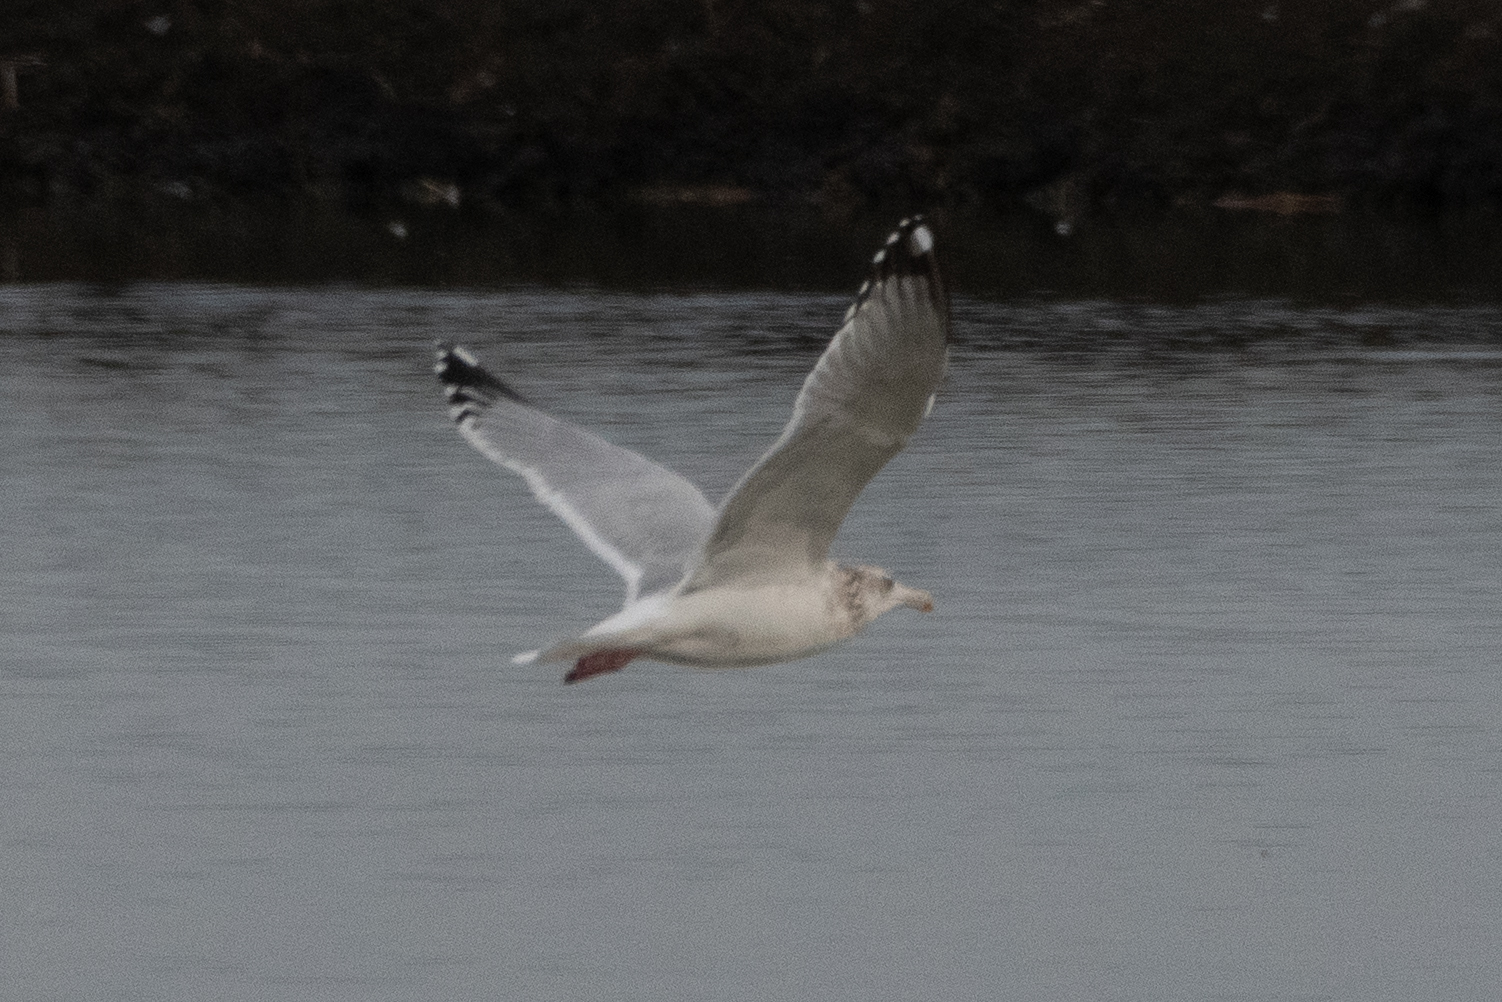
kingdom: Animalia
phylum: Chordata
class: Aves
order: Charadriiformes
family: Laridae
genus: Larus
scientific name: Larus argentatus
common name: Herring gull
